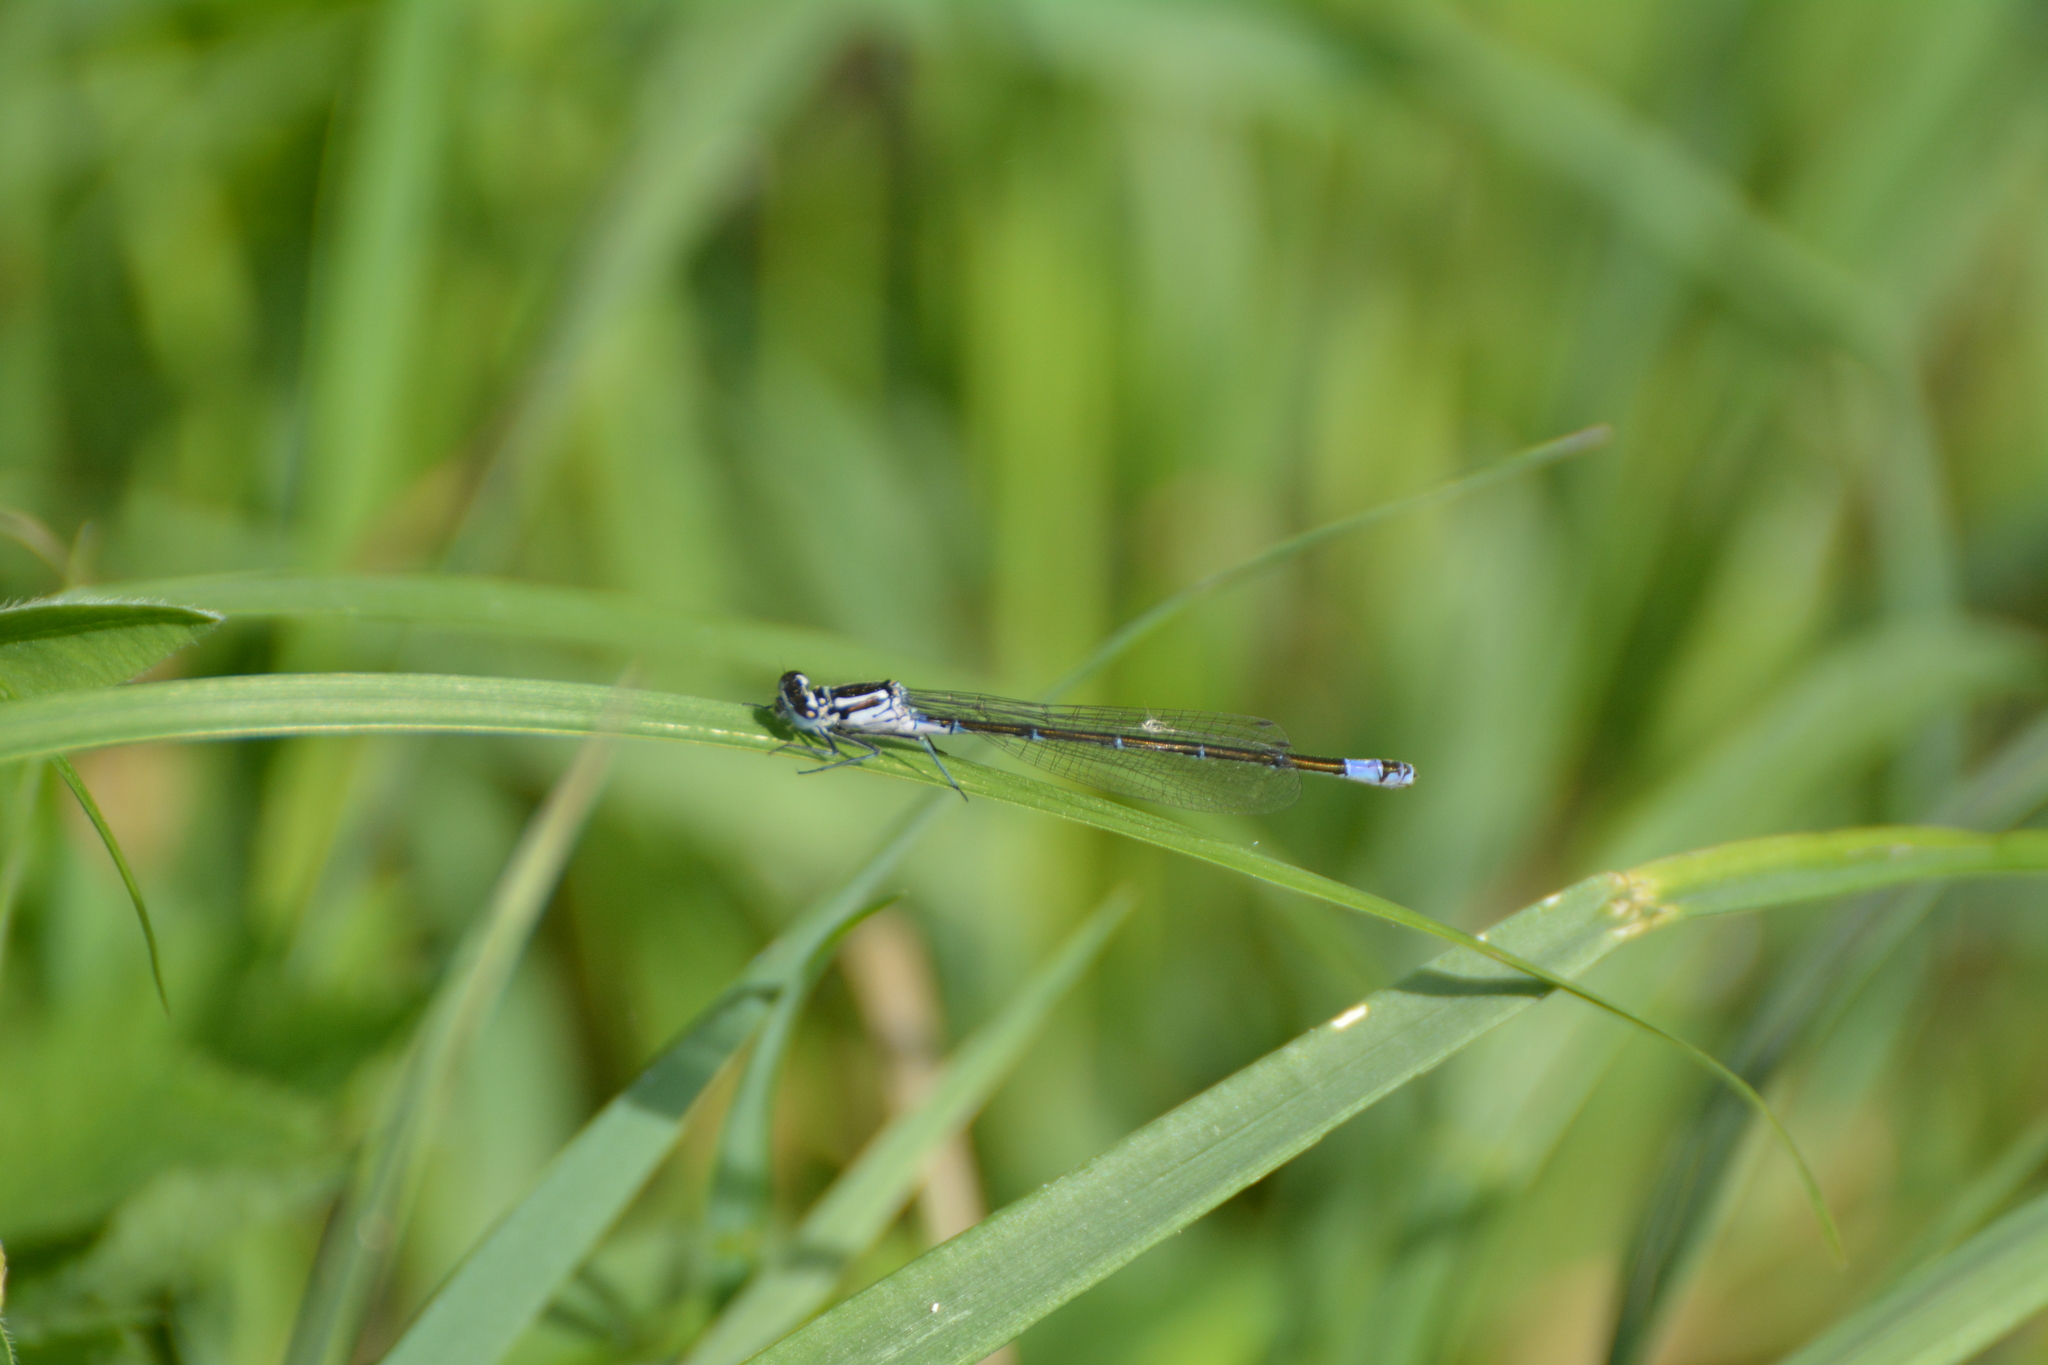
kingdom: Animalia
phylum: Arthropoda
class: Insecta
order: Odonata
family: Coenagrionidae
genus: Coenagrion
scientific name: Coenagrion pulchellum
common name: Variable bluet
